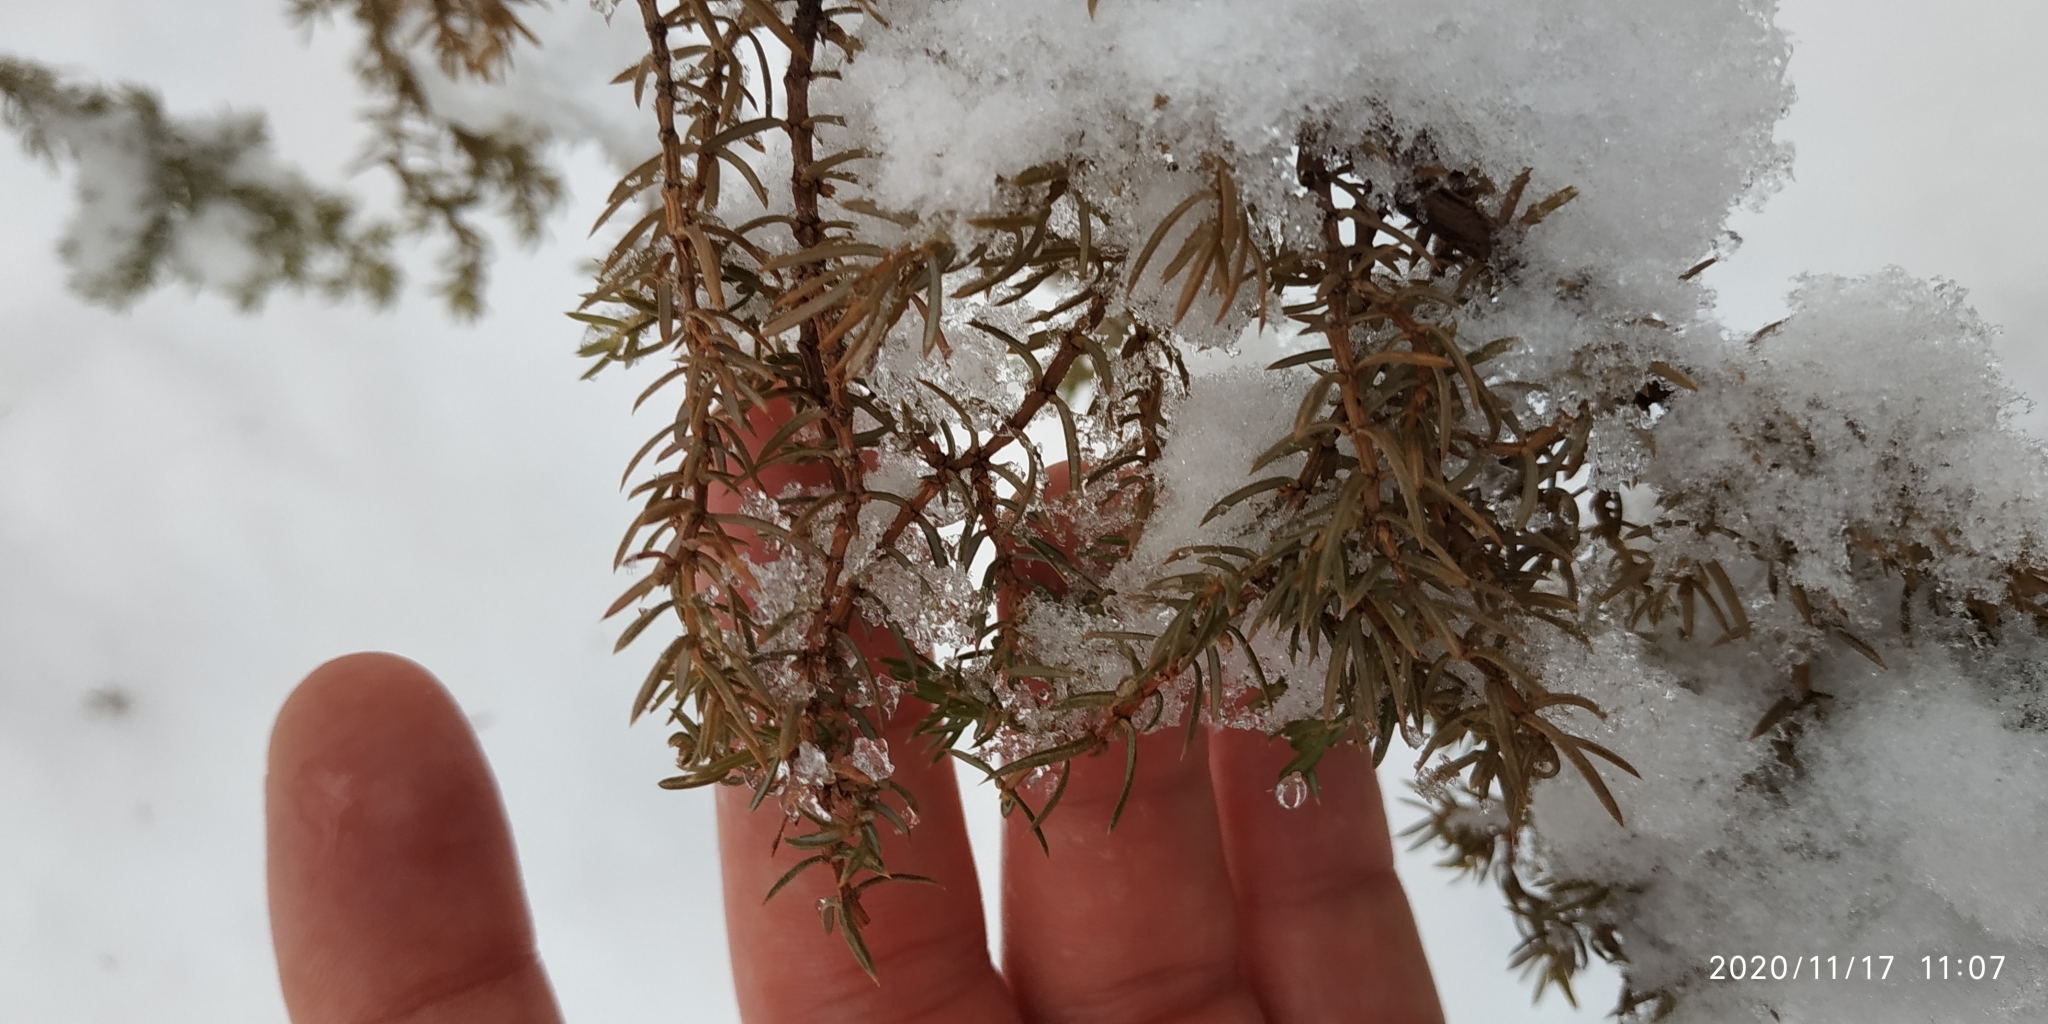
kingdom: Plantae
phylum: Tracheophyta
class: Pinopsida
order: Pinales
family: Cupressaceae
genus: Juniperus
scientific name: Juniperus communis
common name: Common juniper
